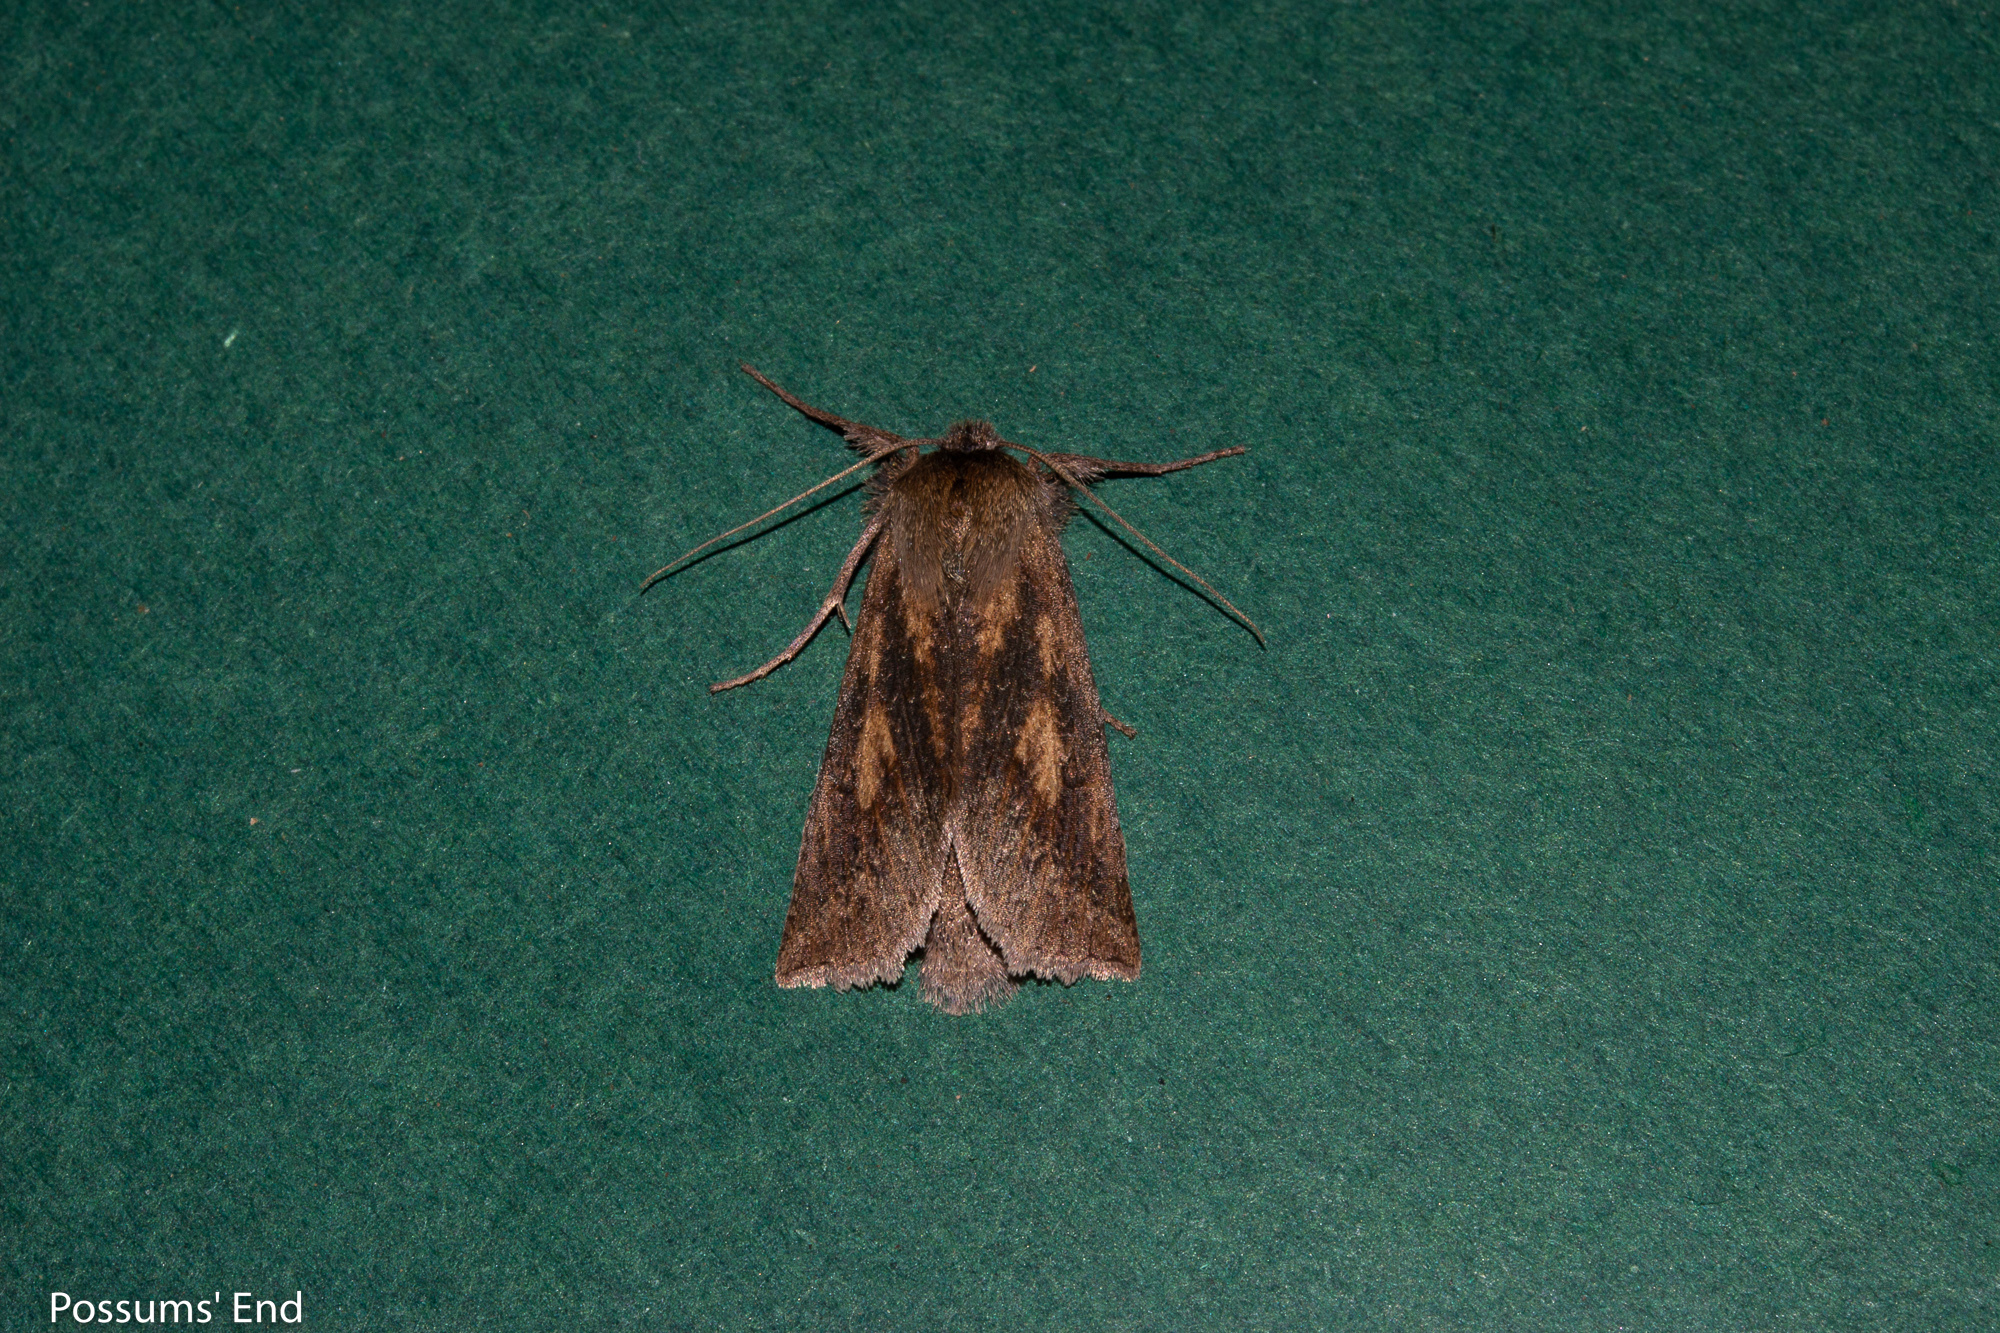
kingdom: Animalia
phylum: Arthropoda
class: Insecta
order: Lepidoptera
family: Geometridae
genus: Declana
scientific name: Declana leptomera
